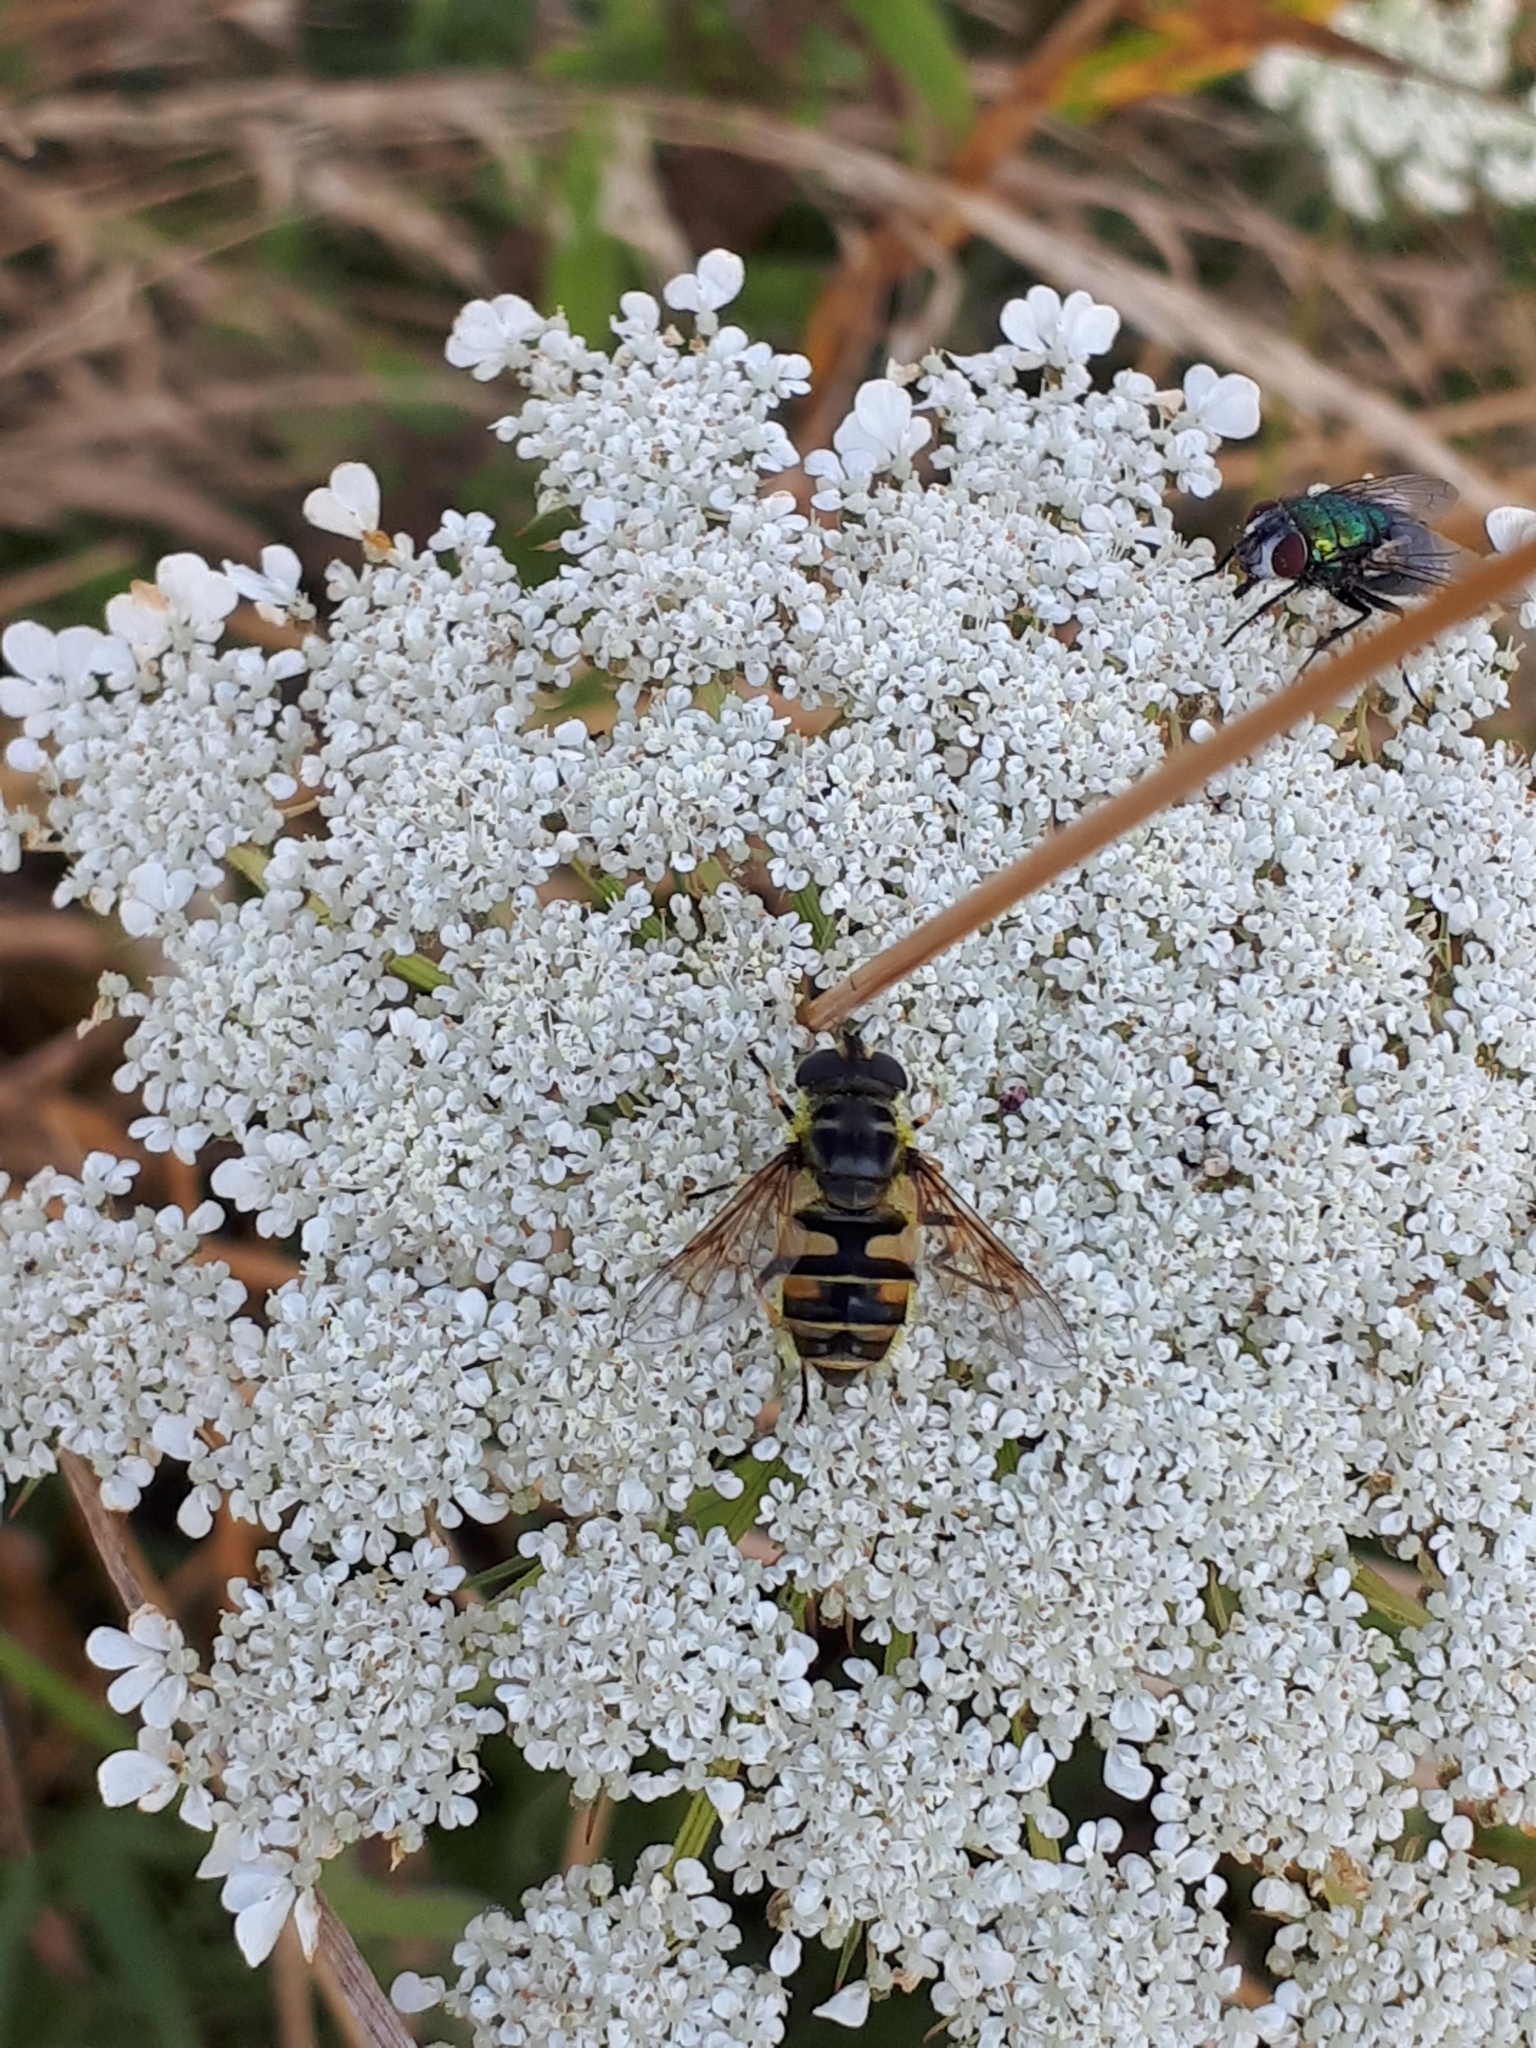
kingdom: Animalia
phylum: Arthropoda
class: Insecta
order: Diptera
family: Syrphidae
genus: Myathropa
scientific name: Myathropa florea
